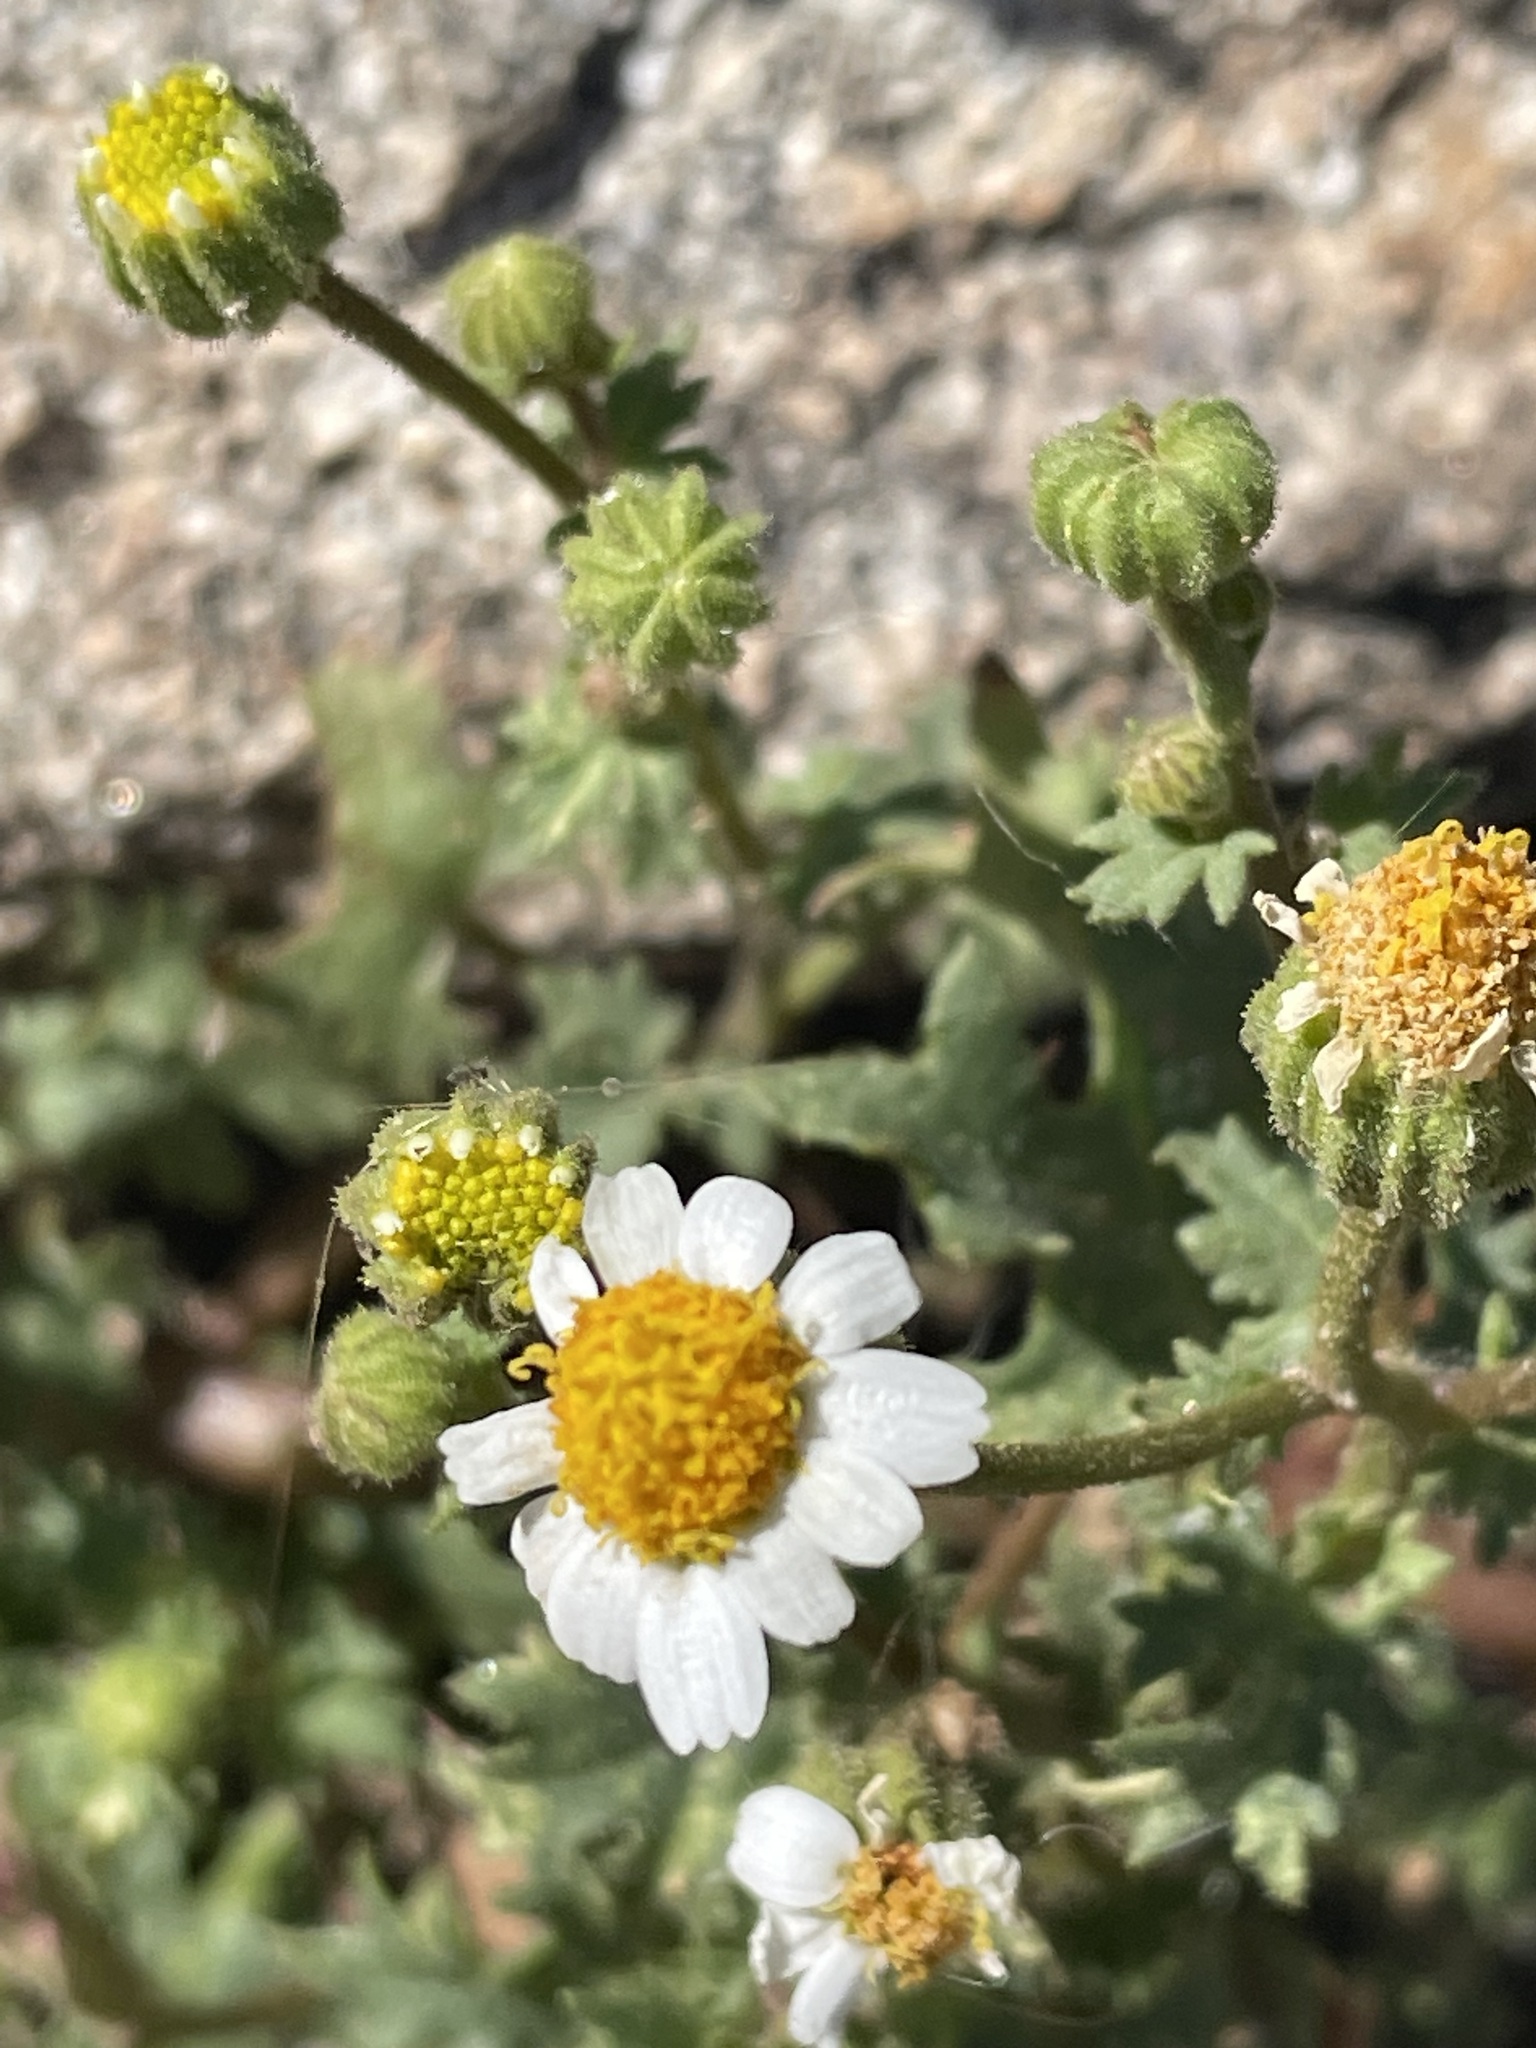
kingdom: Plantae
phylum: Tracheophyta
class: Magnoliopsida
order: Asterales
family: Asteraceae
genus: Laphamia
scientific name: Laphamia emoryi
